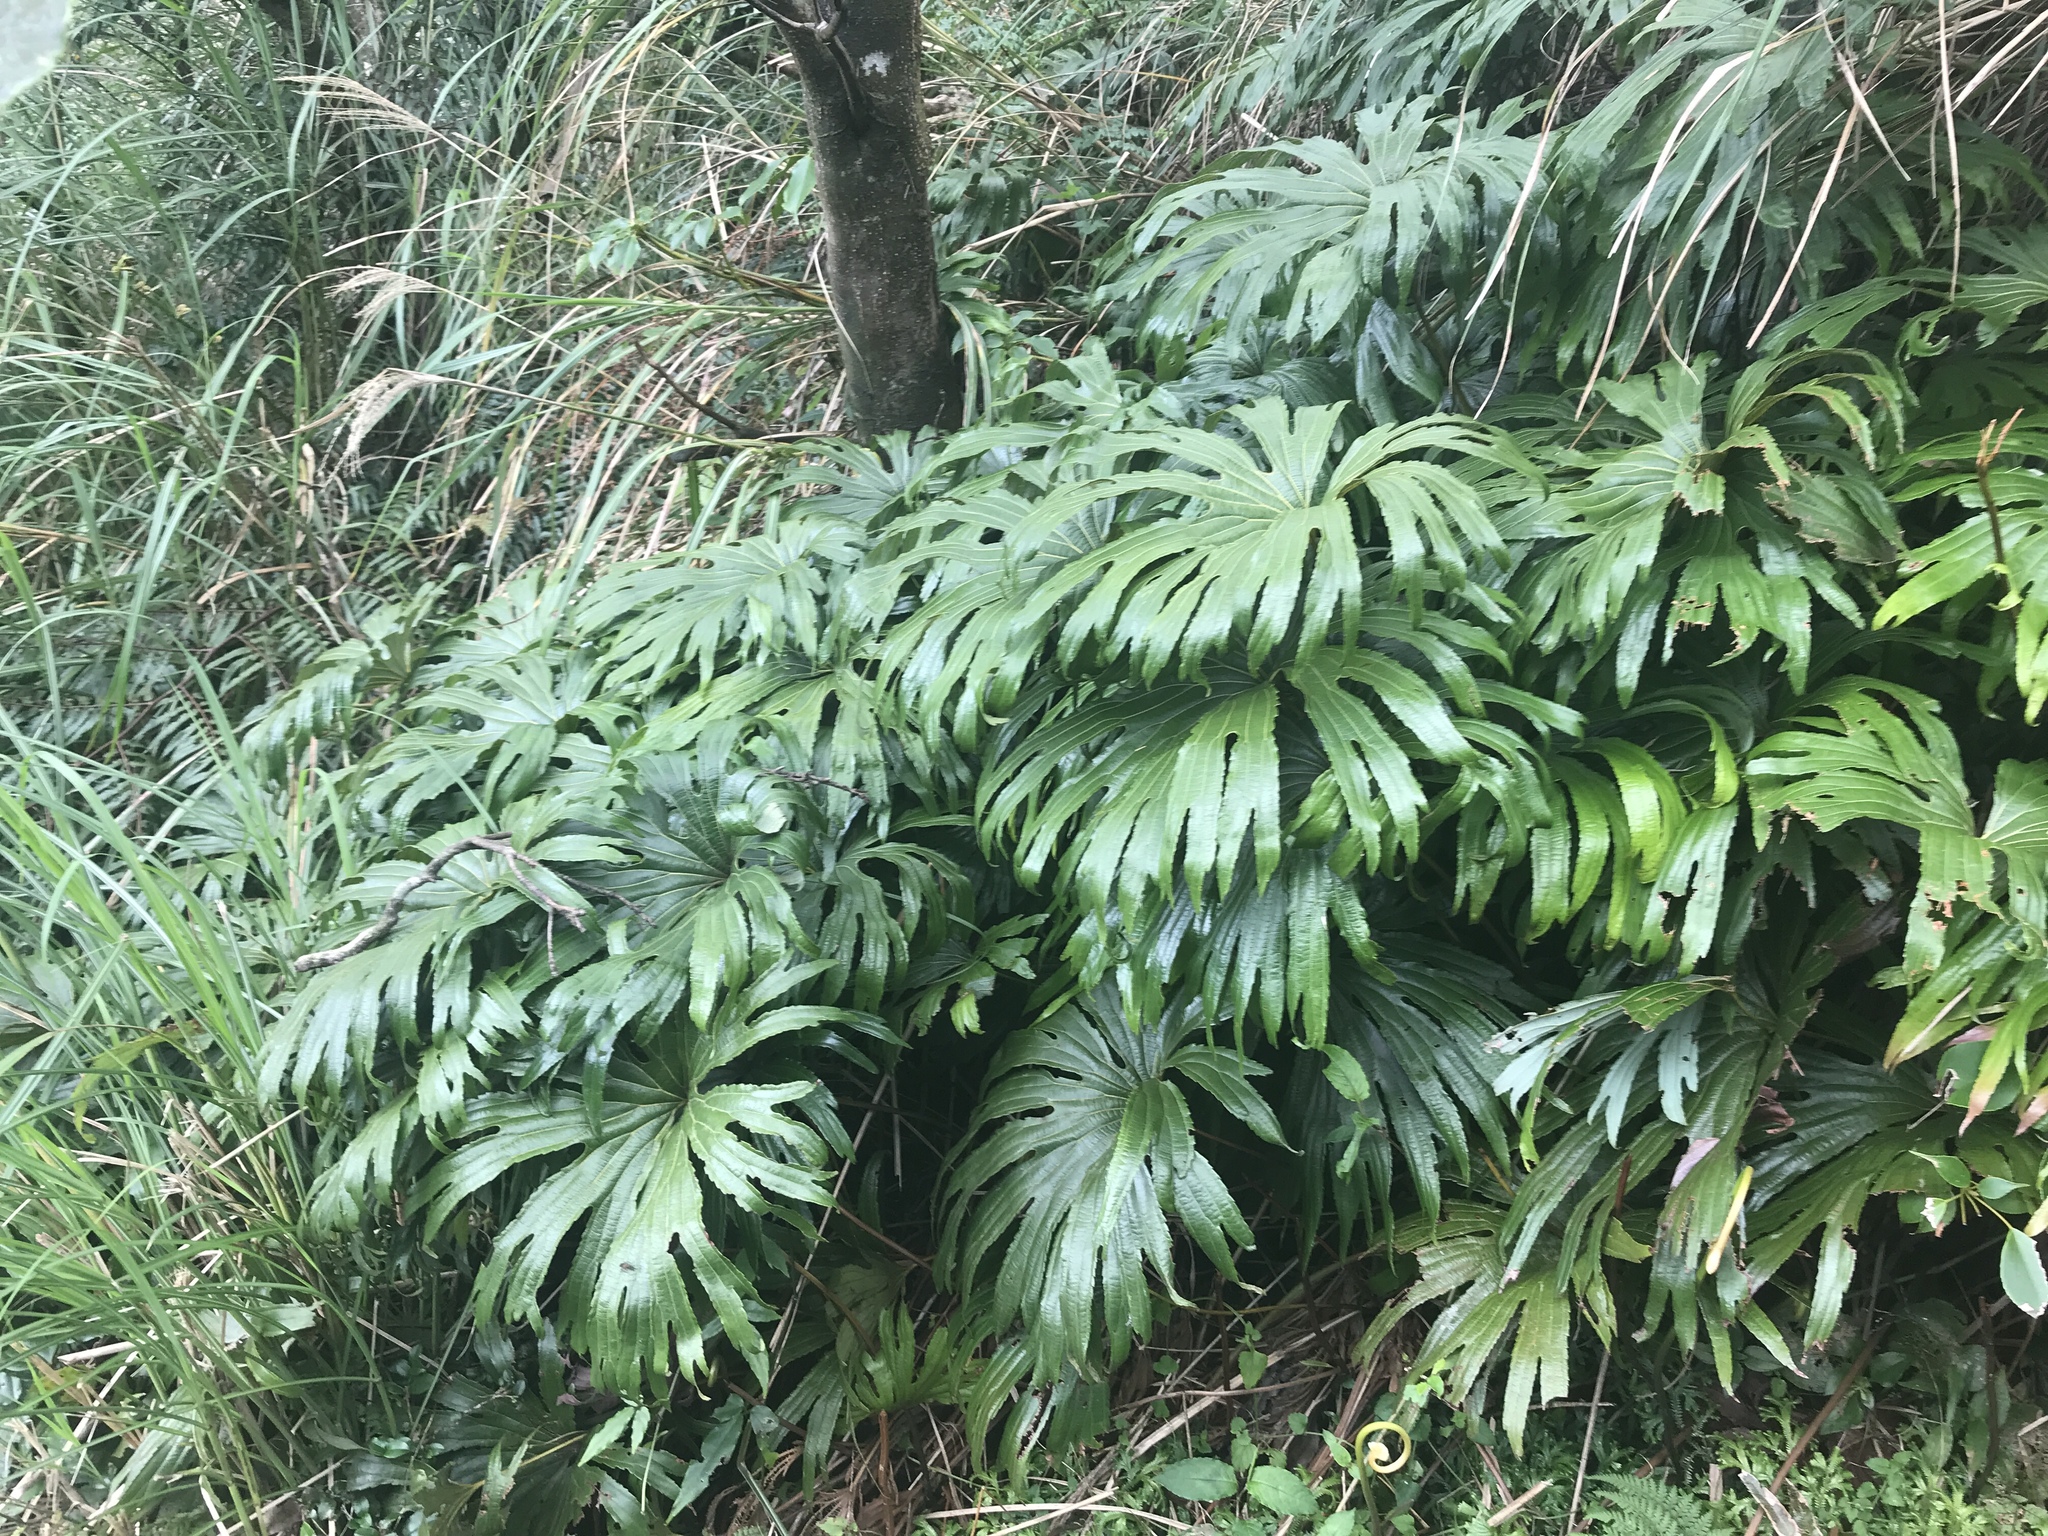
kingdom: Plantae
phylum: Tracheophyta
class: Polypodiopsida
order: Gleicheniales
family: Dipteridaceae
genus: Dipteris
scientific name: Dipteris conjugata
